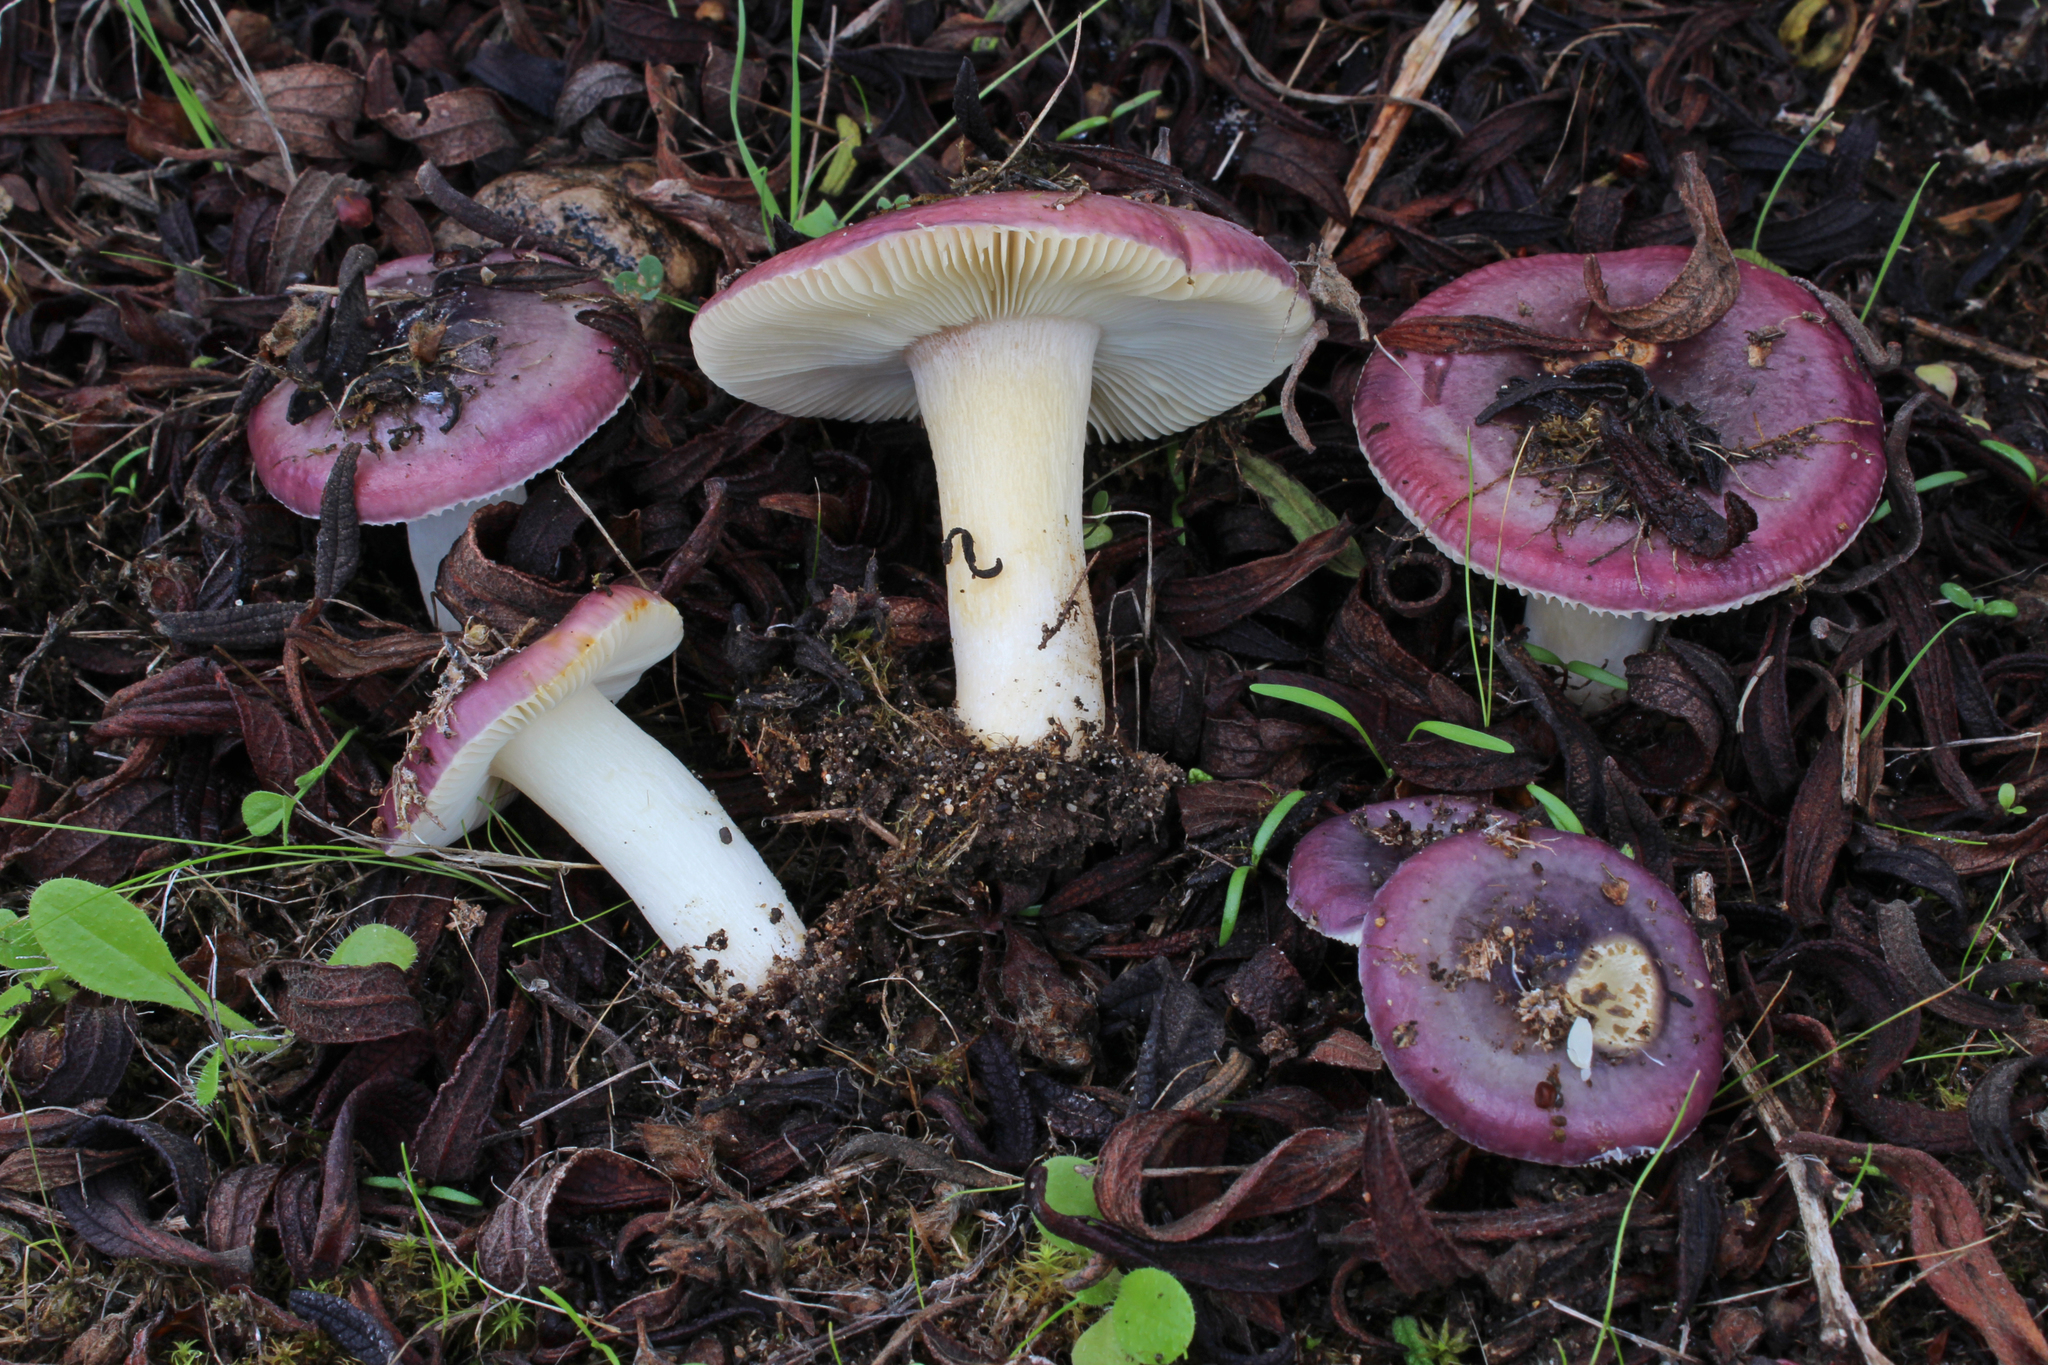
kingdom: Fungi
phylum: Basidiomycota
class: Agaricomycetes
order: Russulales
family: Russulaceae
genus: Russula
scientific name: Russula cistoadelpha
